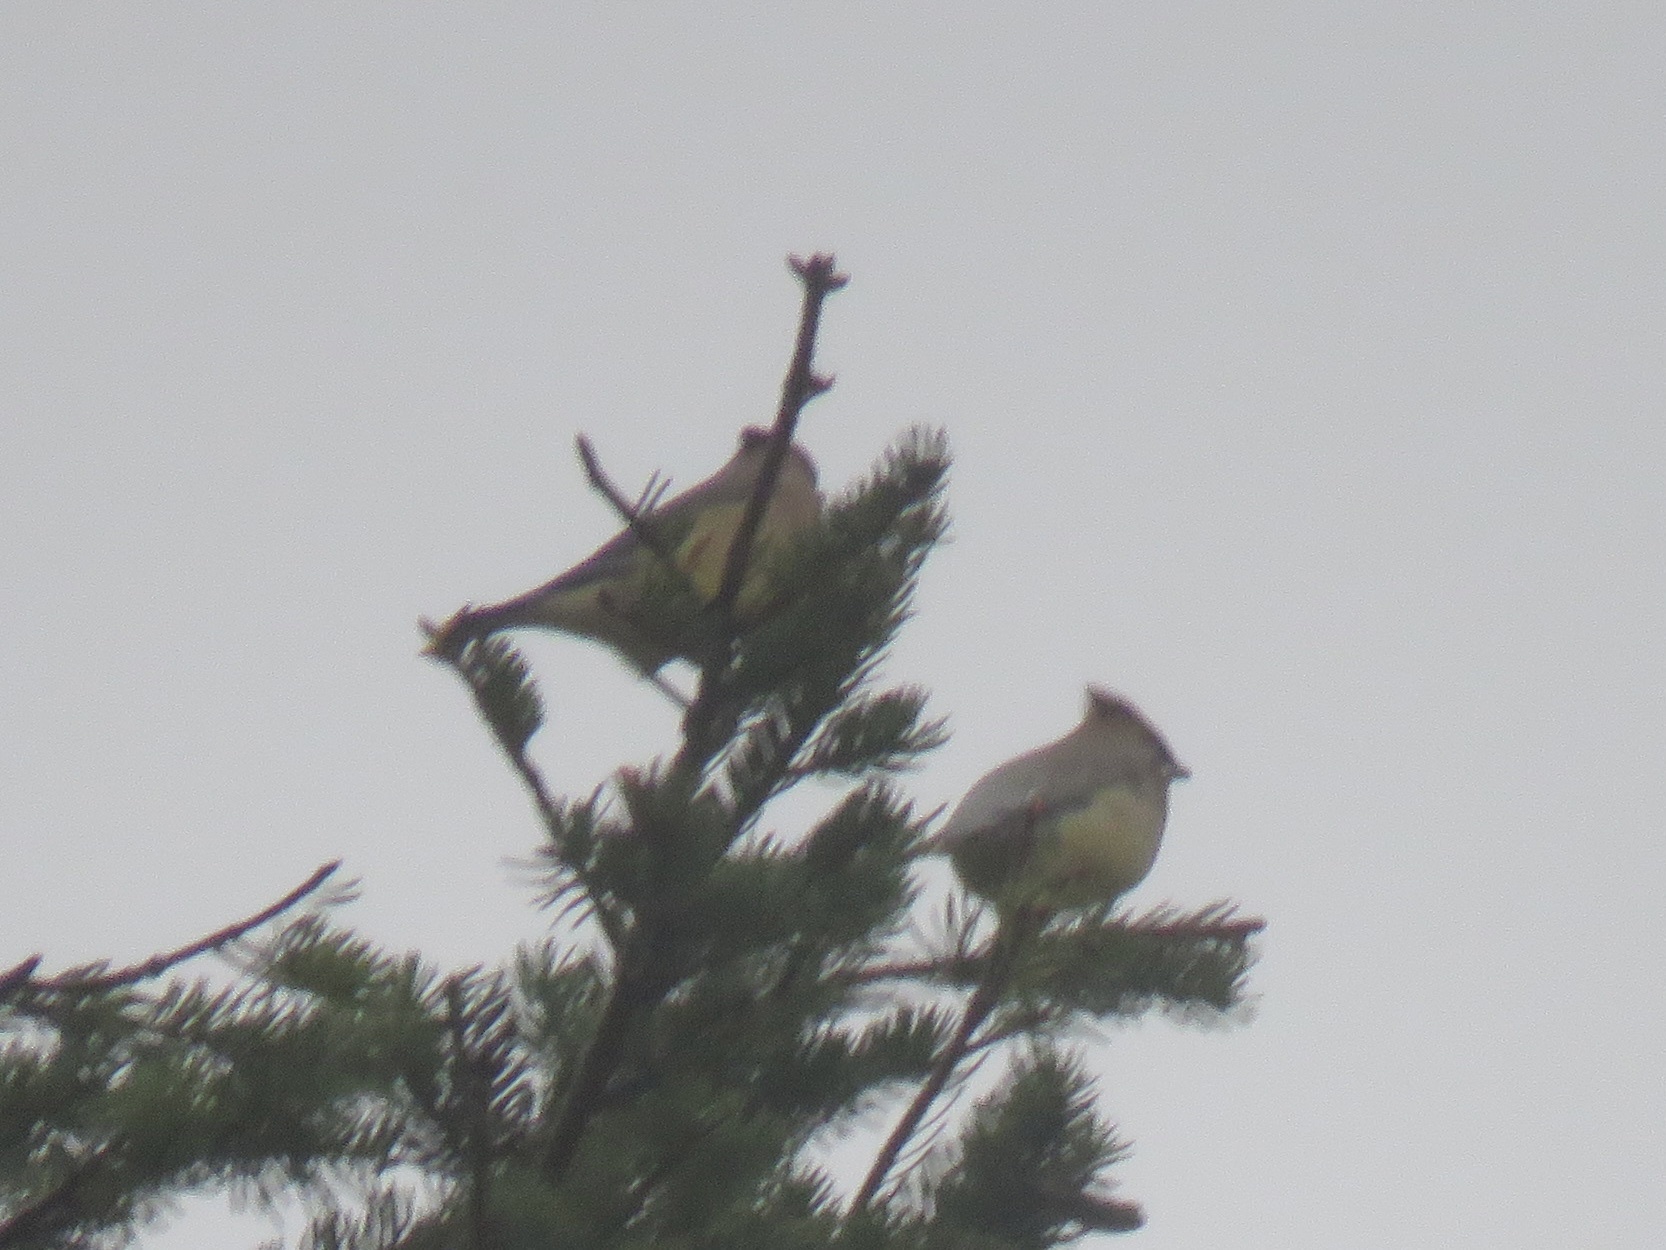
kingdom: Animalia
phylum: Chordata
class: Aves
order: Passeriformes
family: Bombycillidae
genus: Bombycilla
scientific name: Bombycilla cedrorum
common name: Cedar waxwing
